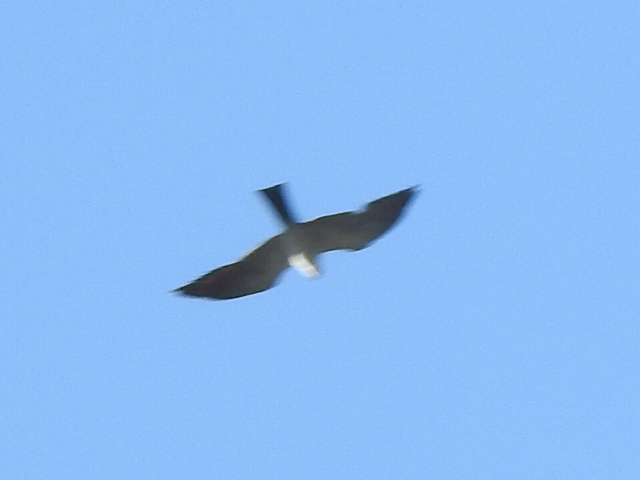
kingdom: Animalia
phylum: Chordata
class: Aves
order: Accipitriformes
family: Accipitridae
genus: Ictinia
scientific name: Ictinia mississippiensis
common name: Mississippi kite
